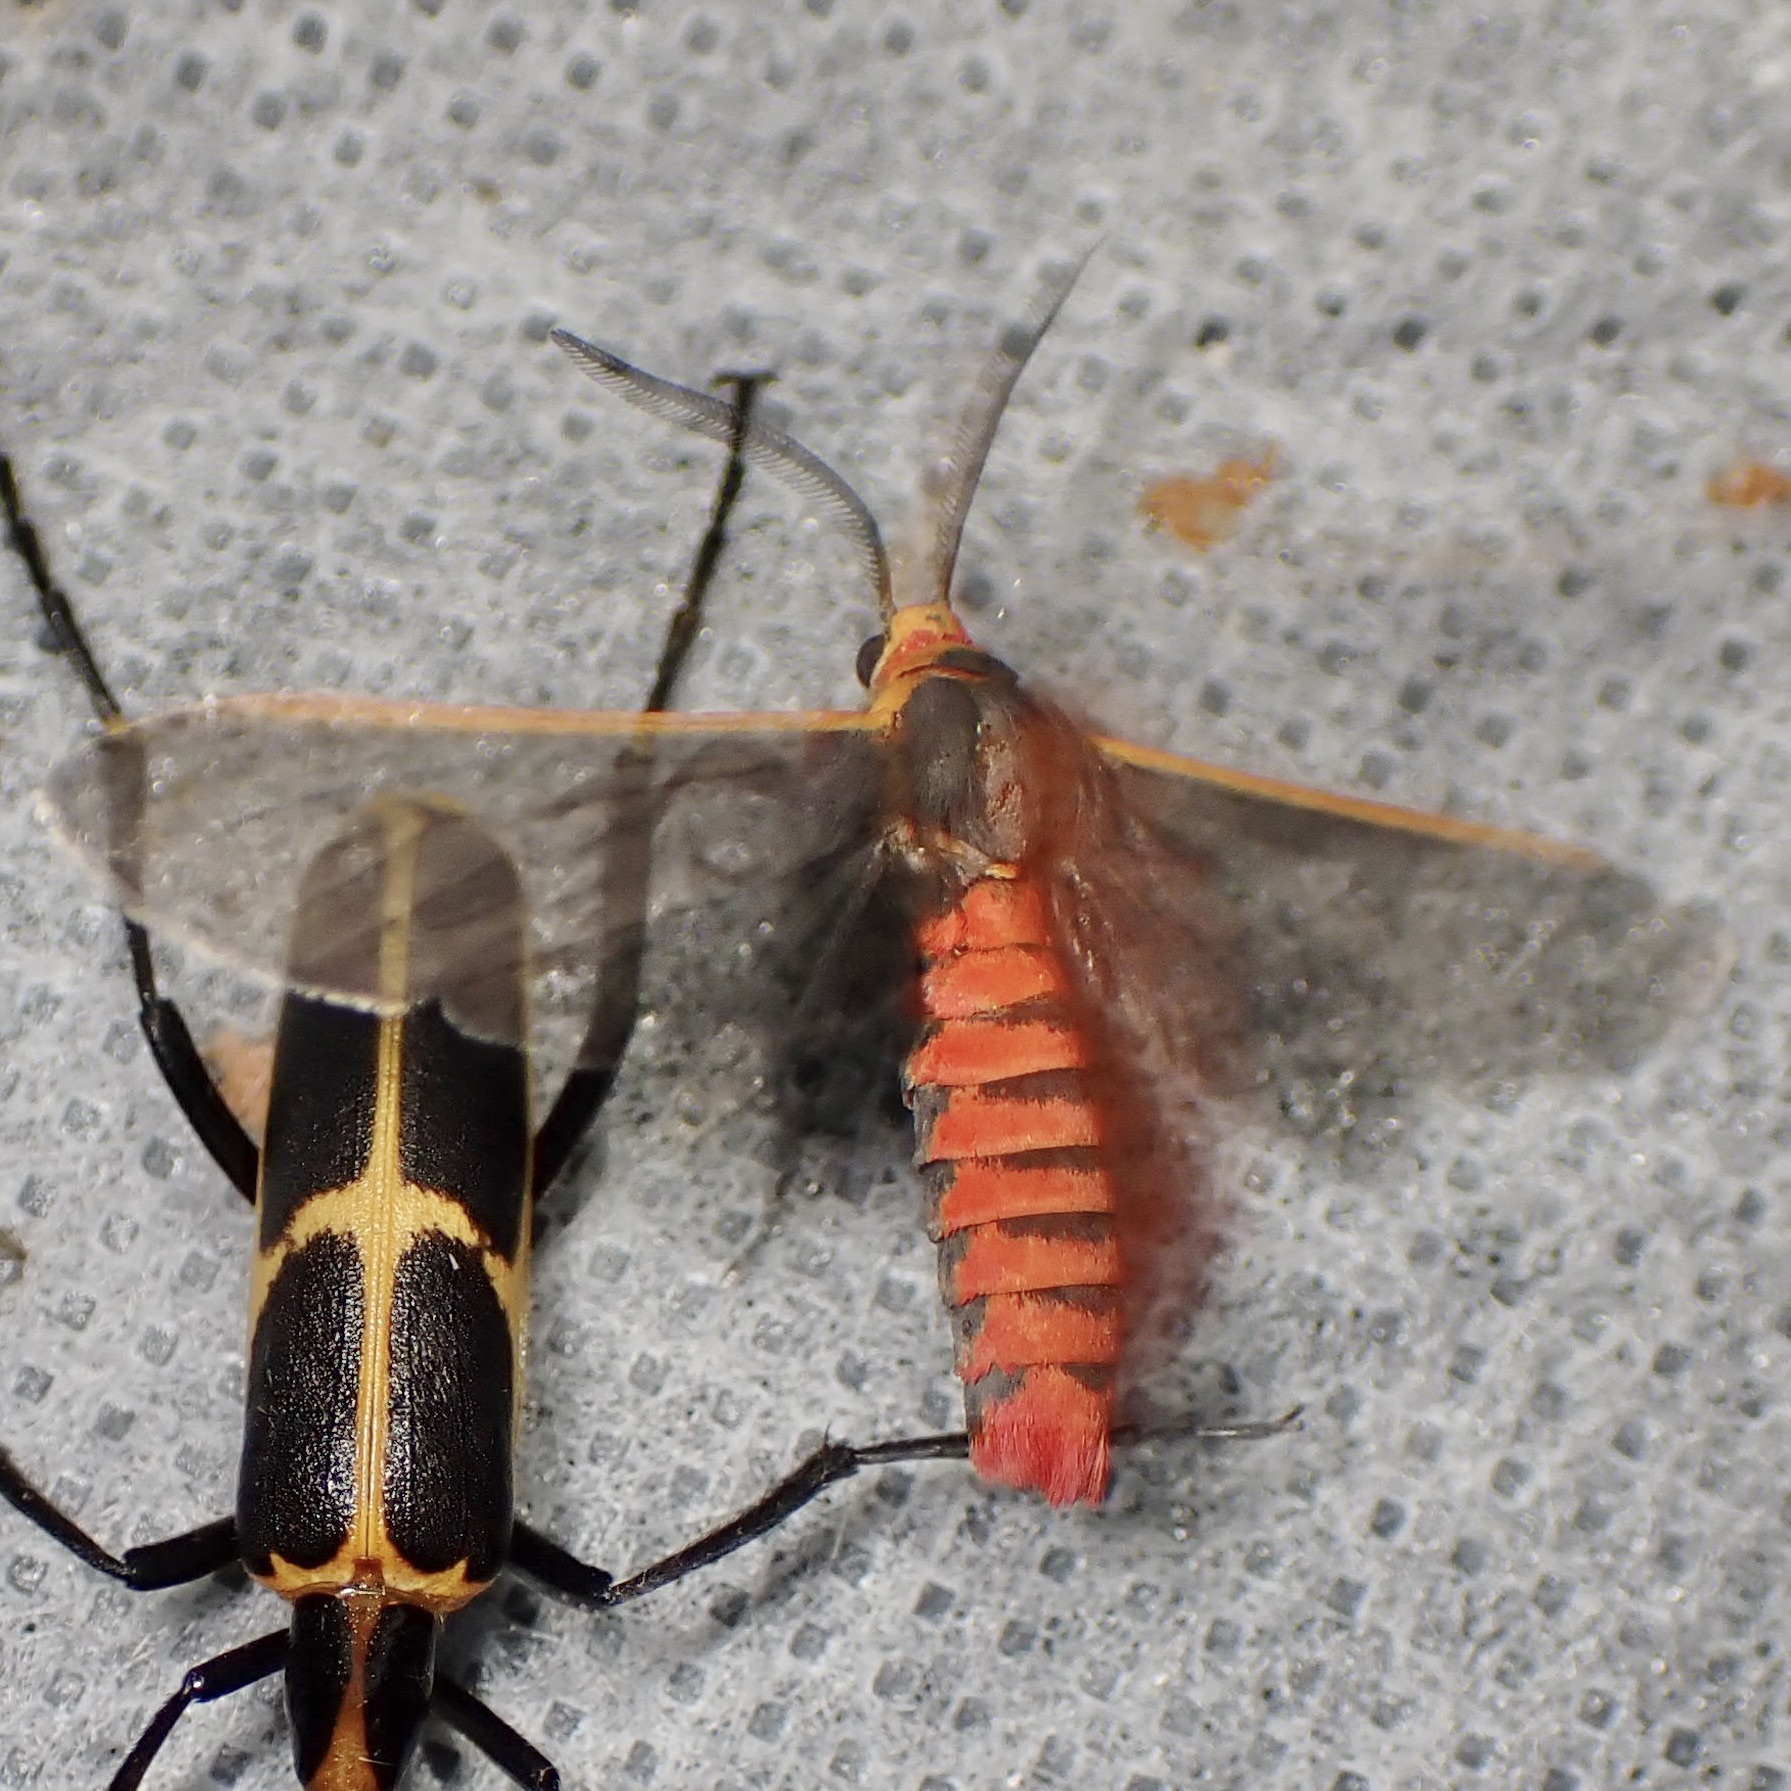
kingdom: Animalia
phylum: Arthropoda
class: Insecta
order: Lepidoptera
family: Erebidae
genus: Euchaetes
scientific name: Euchaetes antica
